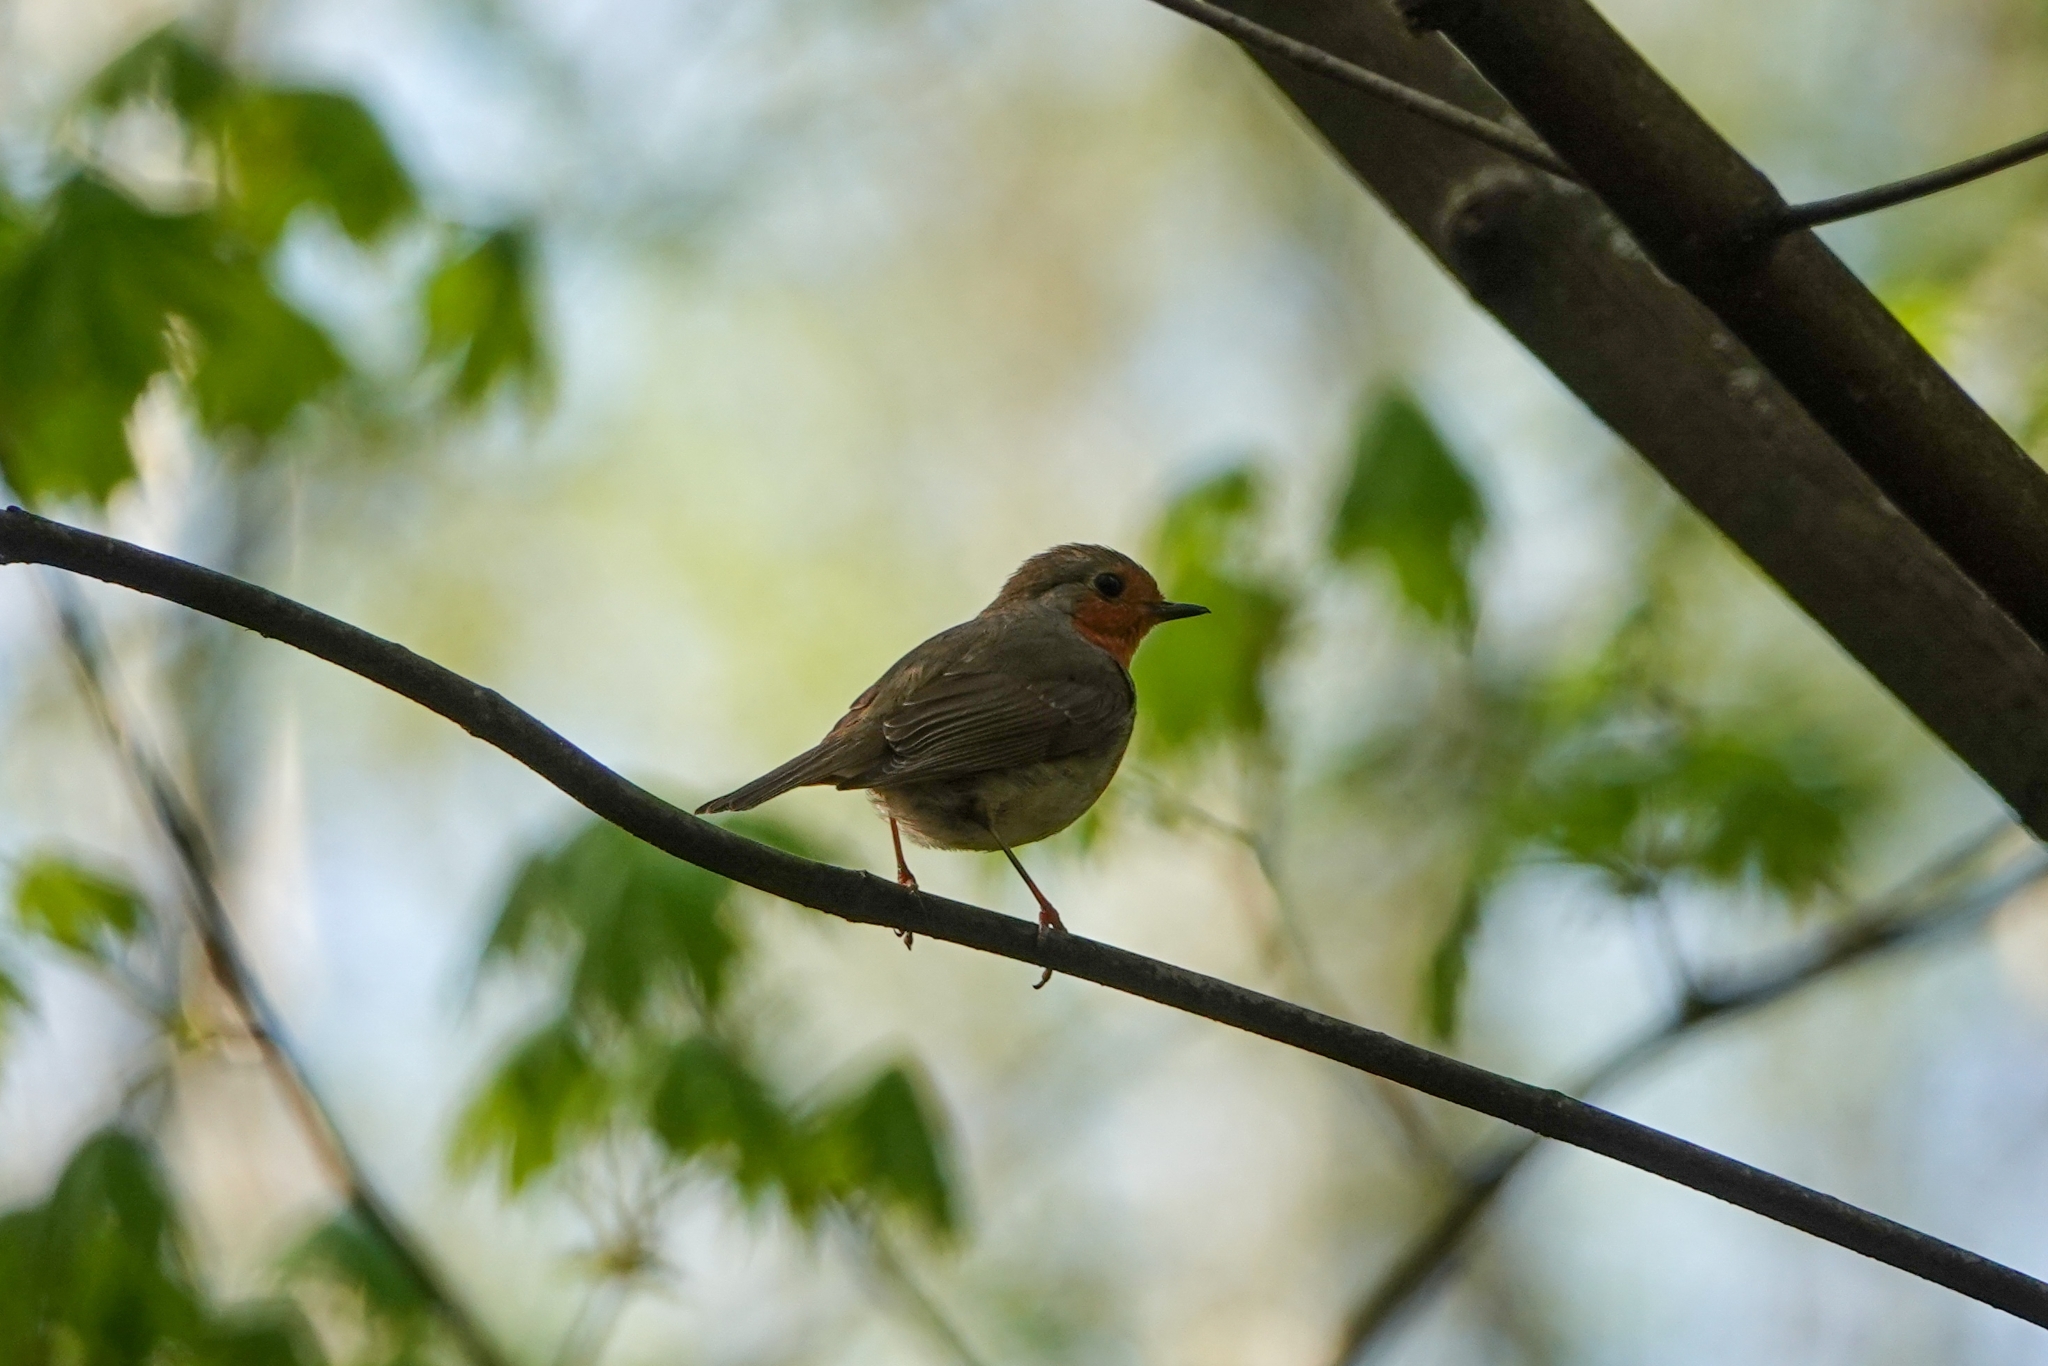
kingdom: Animalia
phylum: Chordata
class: Aves
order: Passeriformes
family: Muscicapidae
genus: Erithacus
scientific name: Erithacus rubecula
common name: European robin
